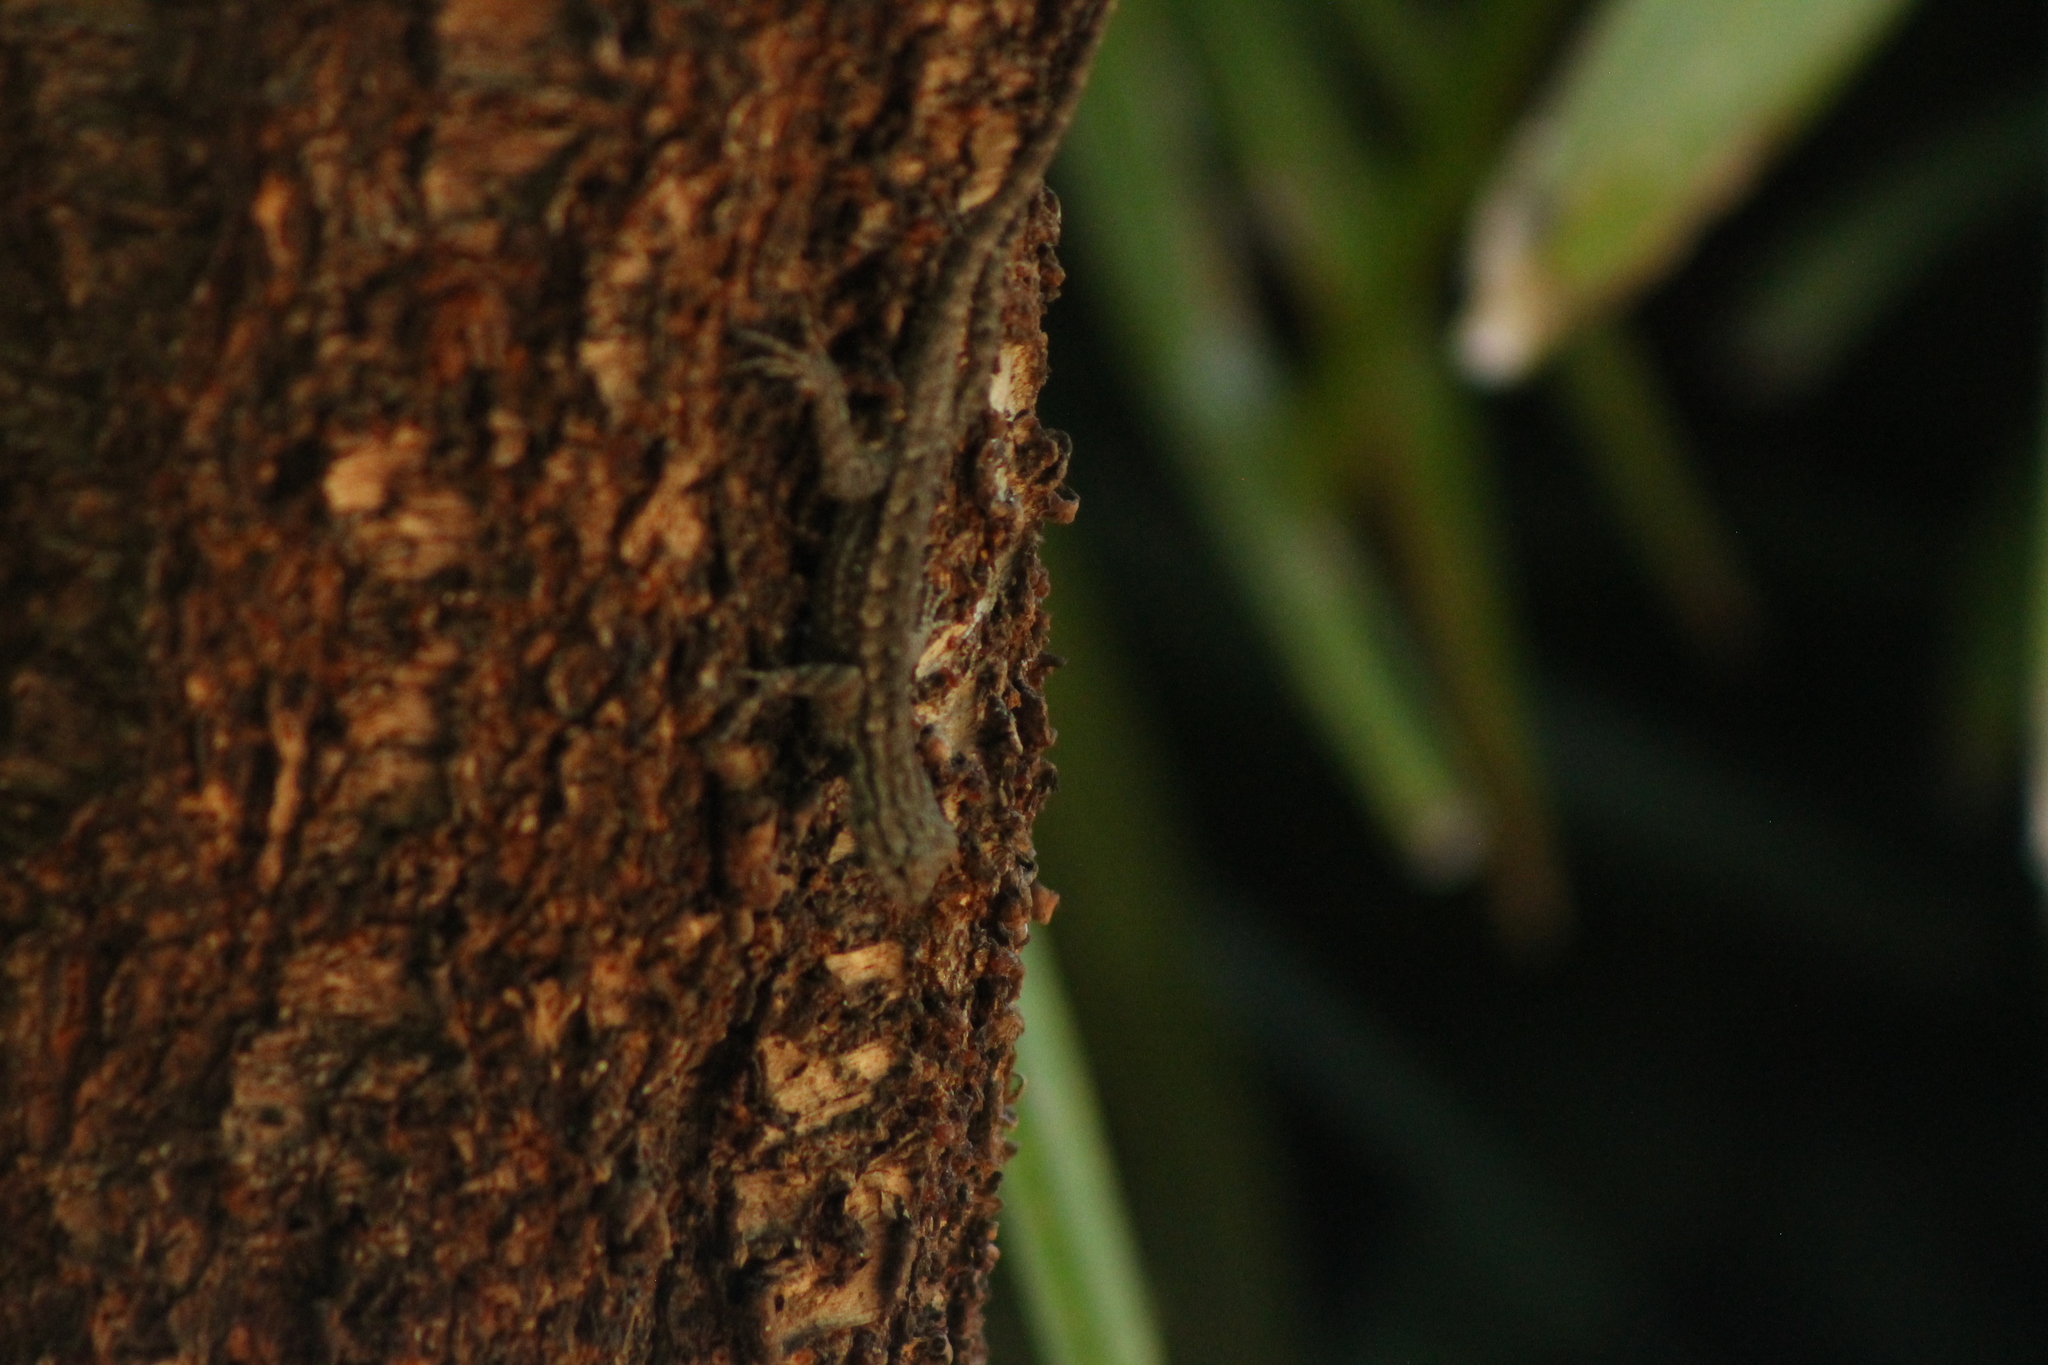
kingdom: Animalia
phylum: Chordata
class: Squamata
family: Phrynosomatidae
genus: Sceloporus
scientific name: Sceloporus occidentalis
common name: Western fence lizard
